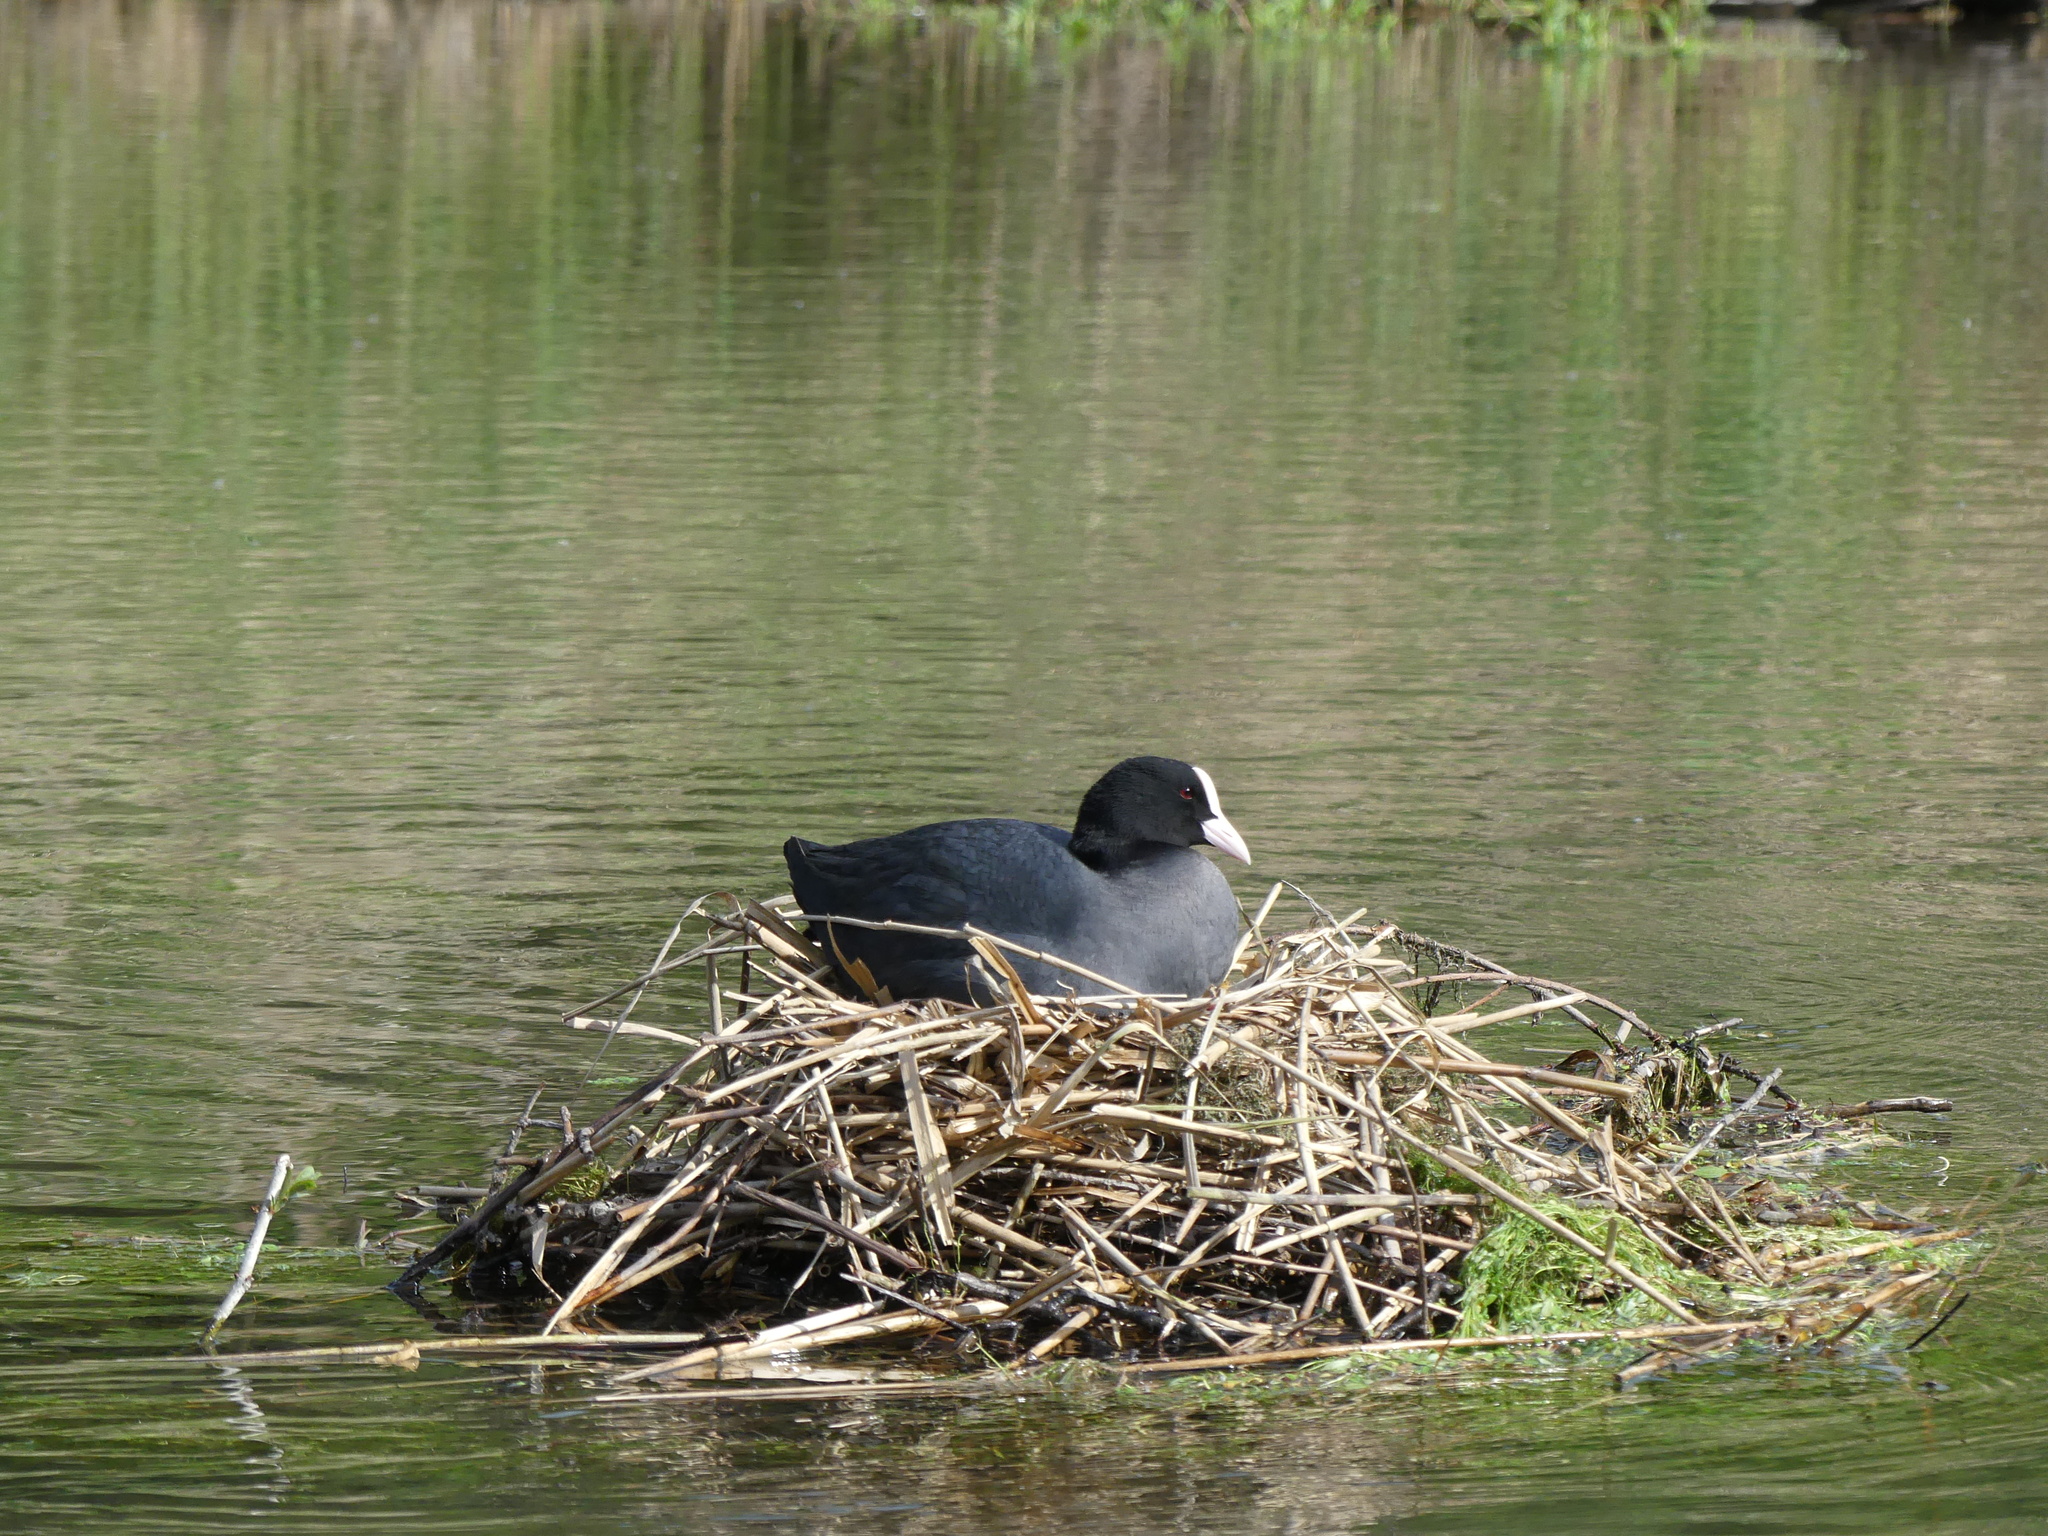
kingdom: Animalia
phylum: Chordata
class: Aves
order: Gruiformes
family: Rallidae
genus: Fulica
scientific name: Fulica atra
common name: Eurasian coot
